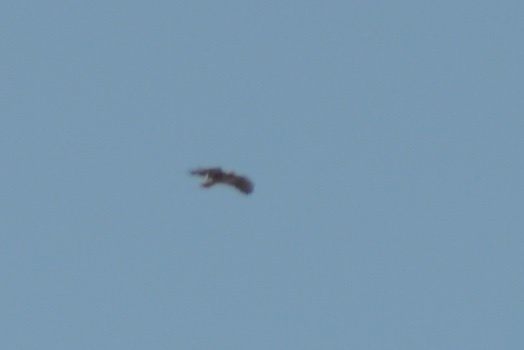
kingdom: Animalia
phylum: Chordata
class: Aves
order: Accipitriformes
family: Accipitridae
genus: Buteo
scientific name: Buteo jamaicensis
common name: Red-tailed hawk
